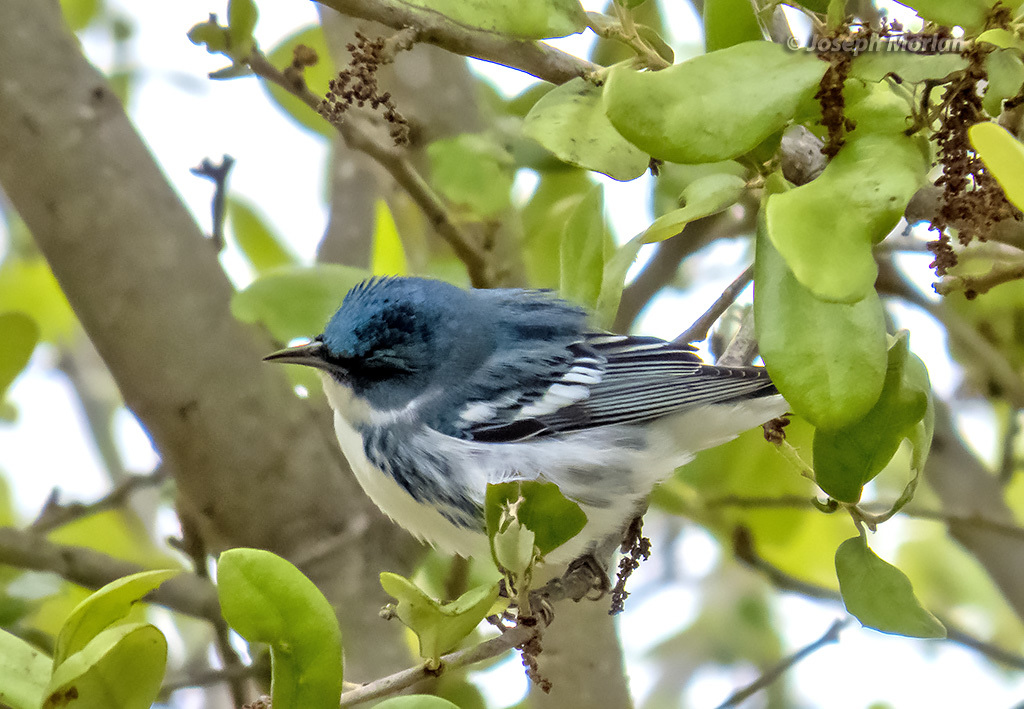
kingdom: Animalia
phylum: Chordata
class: Aves
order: Passeriformes
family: Parulidae
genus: Setophaga
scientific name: Setophaga cerulea
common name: Cerulean warbler
